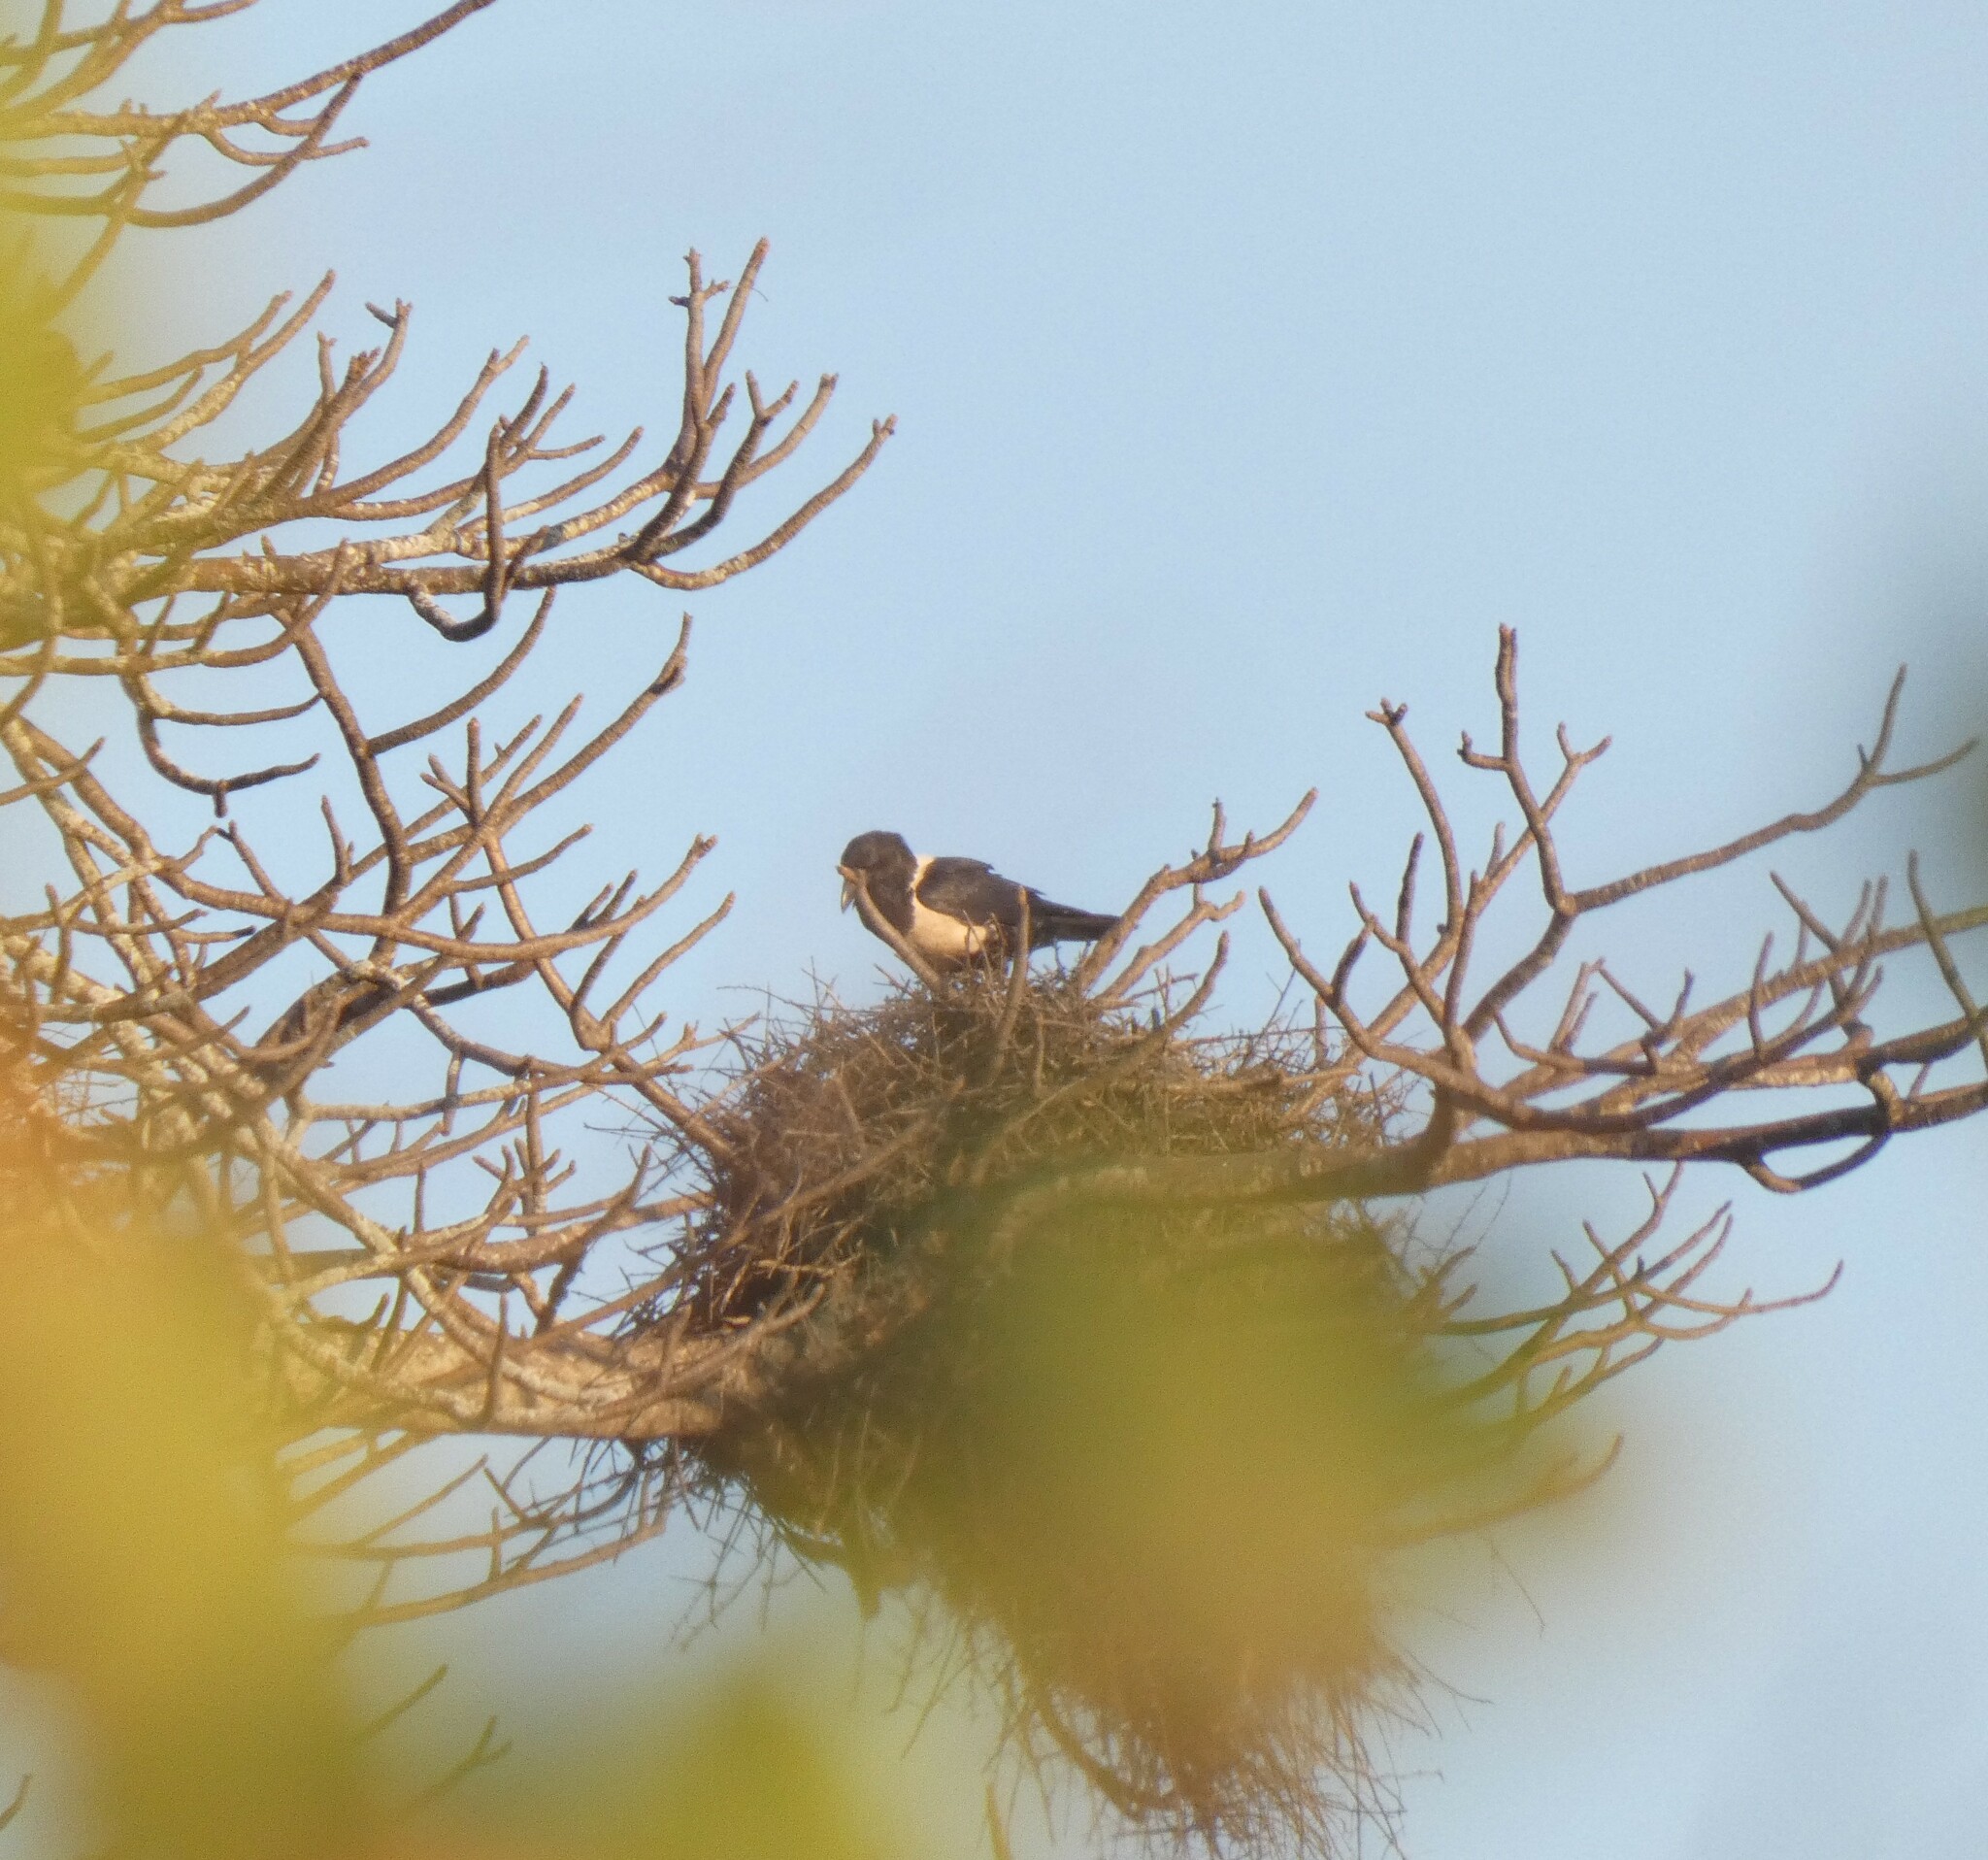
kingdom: Animalia
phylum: Chordata
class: Aves
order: Passeriformes
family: Corvidae
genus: Corvus
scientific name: Corvus albus
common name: Pied crow
